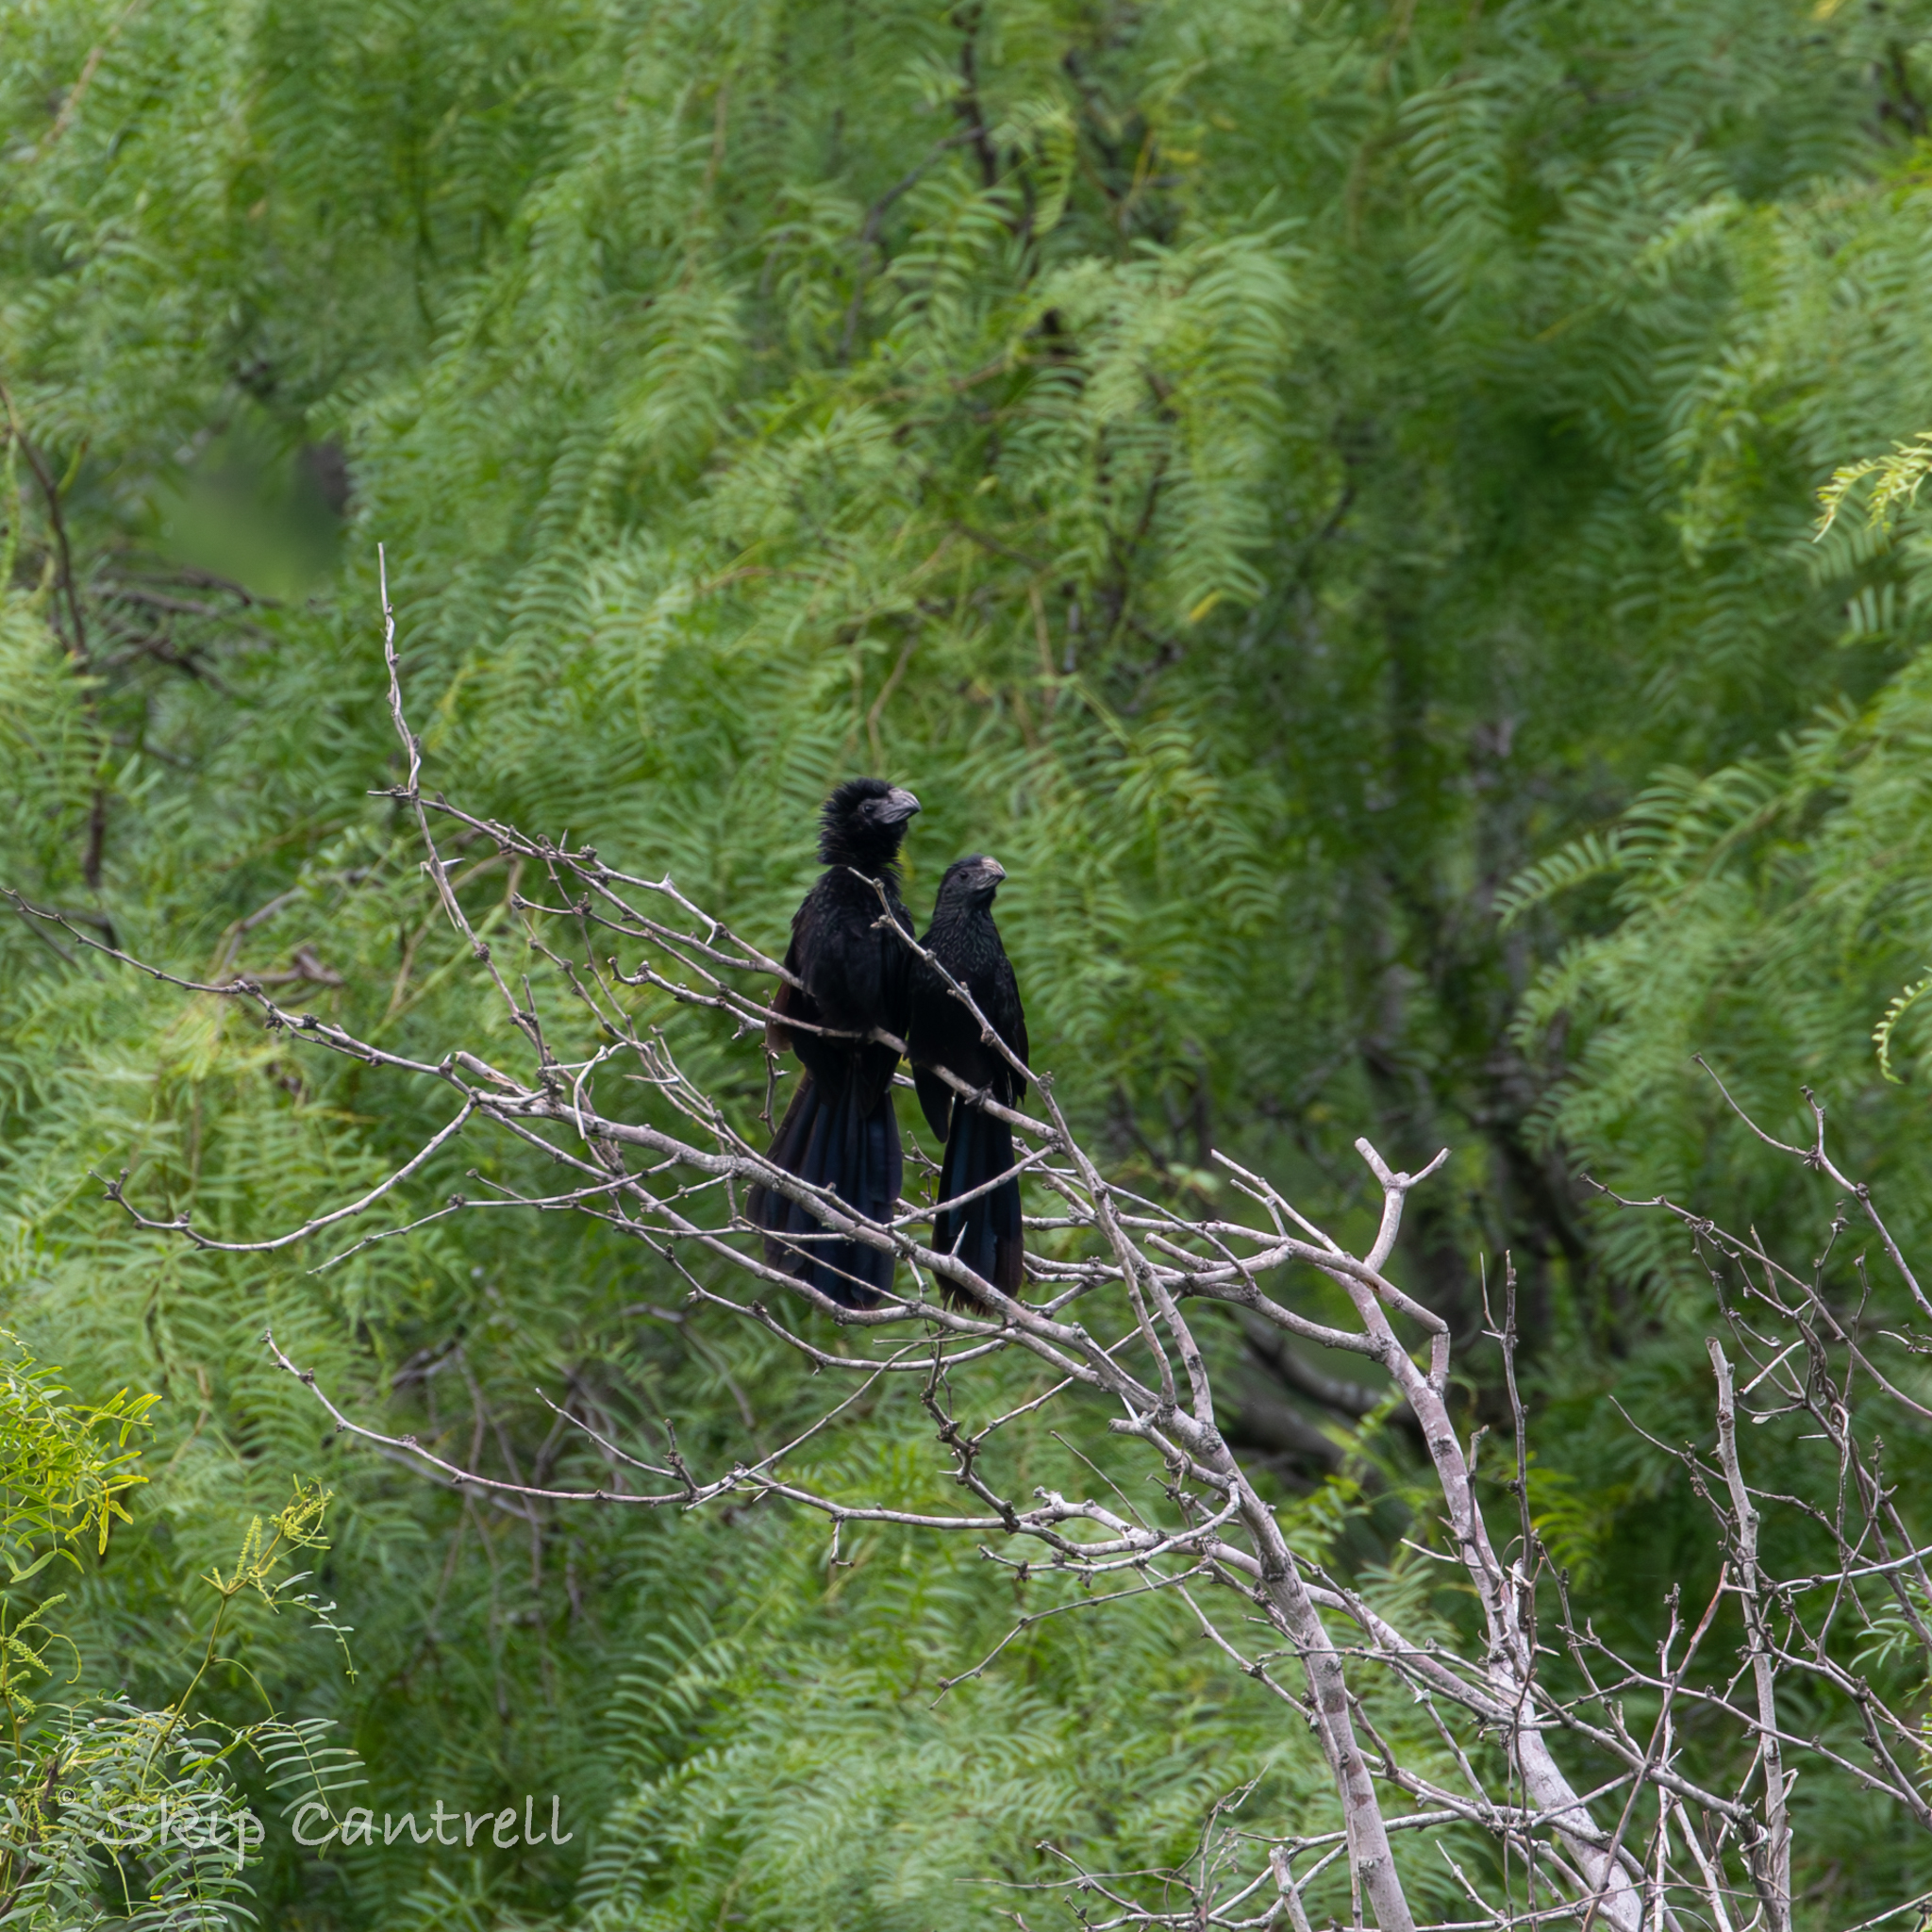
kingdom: Animalia
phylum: Chordata
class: Aves
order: Cuculiformes
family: Cuculidae
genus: Crotophaga
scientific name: Crotophaga sulcirostris
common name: Groove-billed ani
